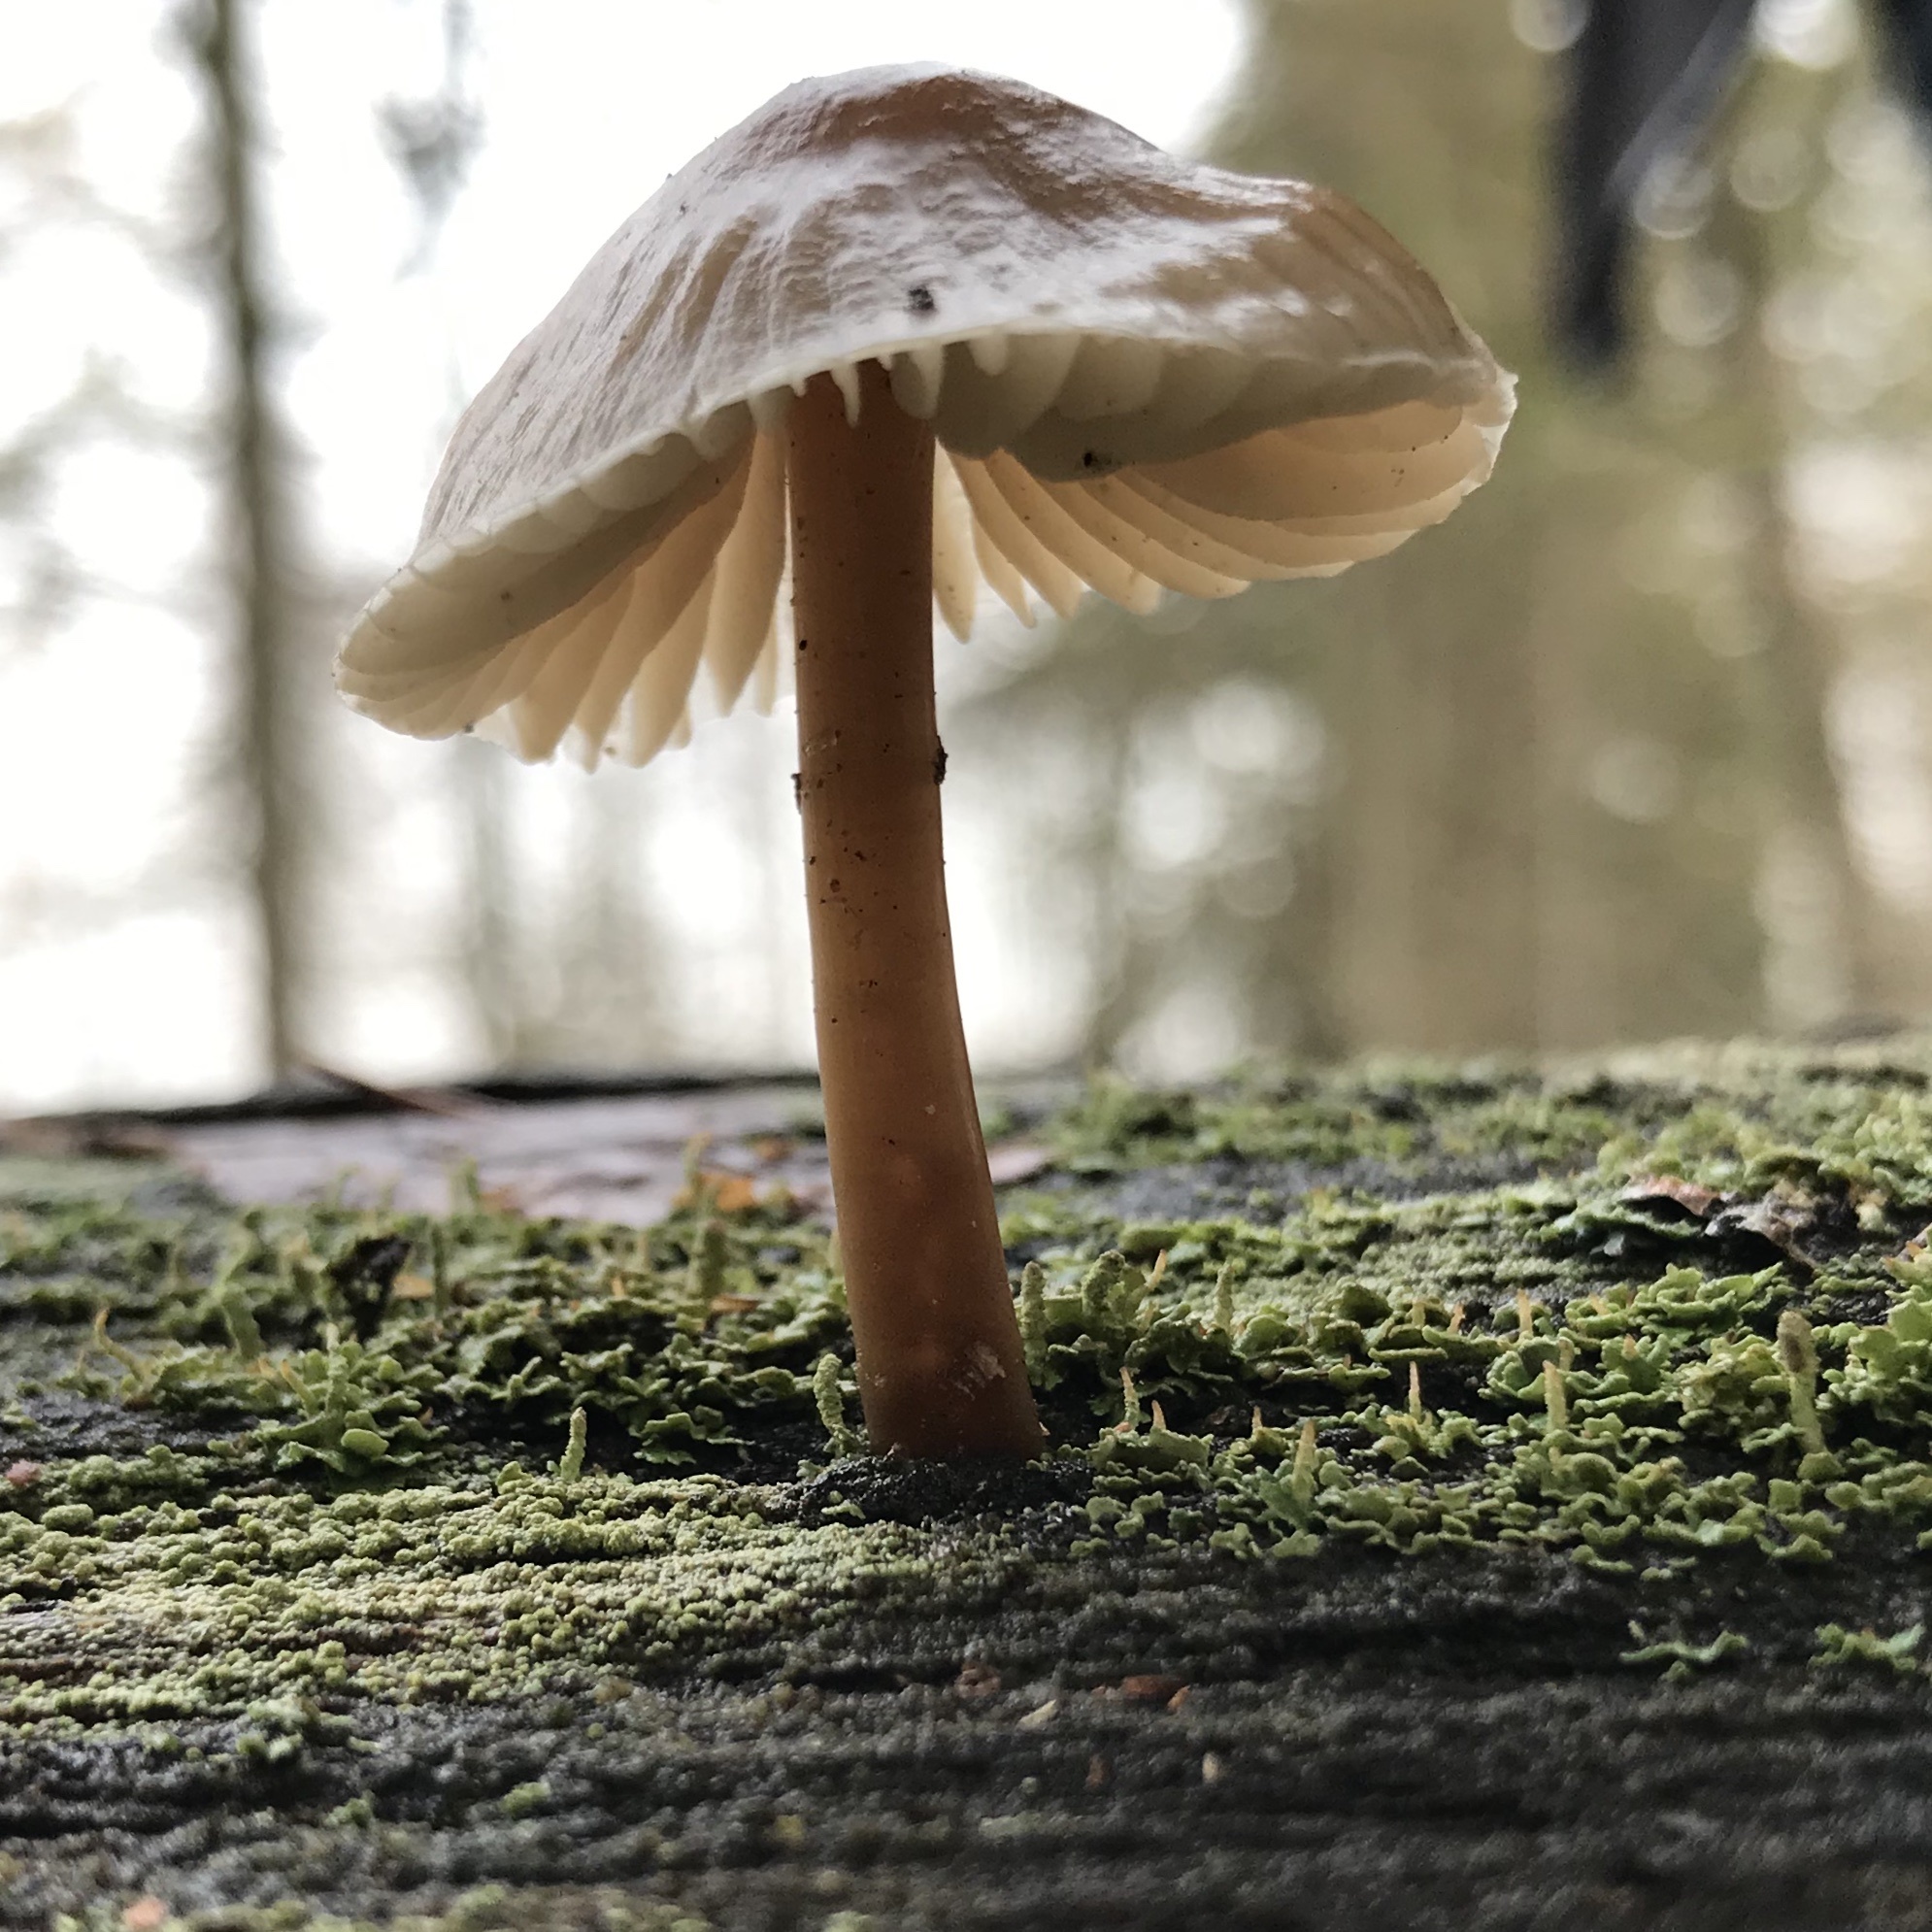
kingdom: Fungi
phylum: Basidiomycota
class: Agaricomycetes
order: Agaricales
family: Mycenaceae
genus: Mycena
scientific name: Mycena galericulata
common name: Bonnet mycena
